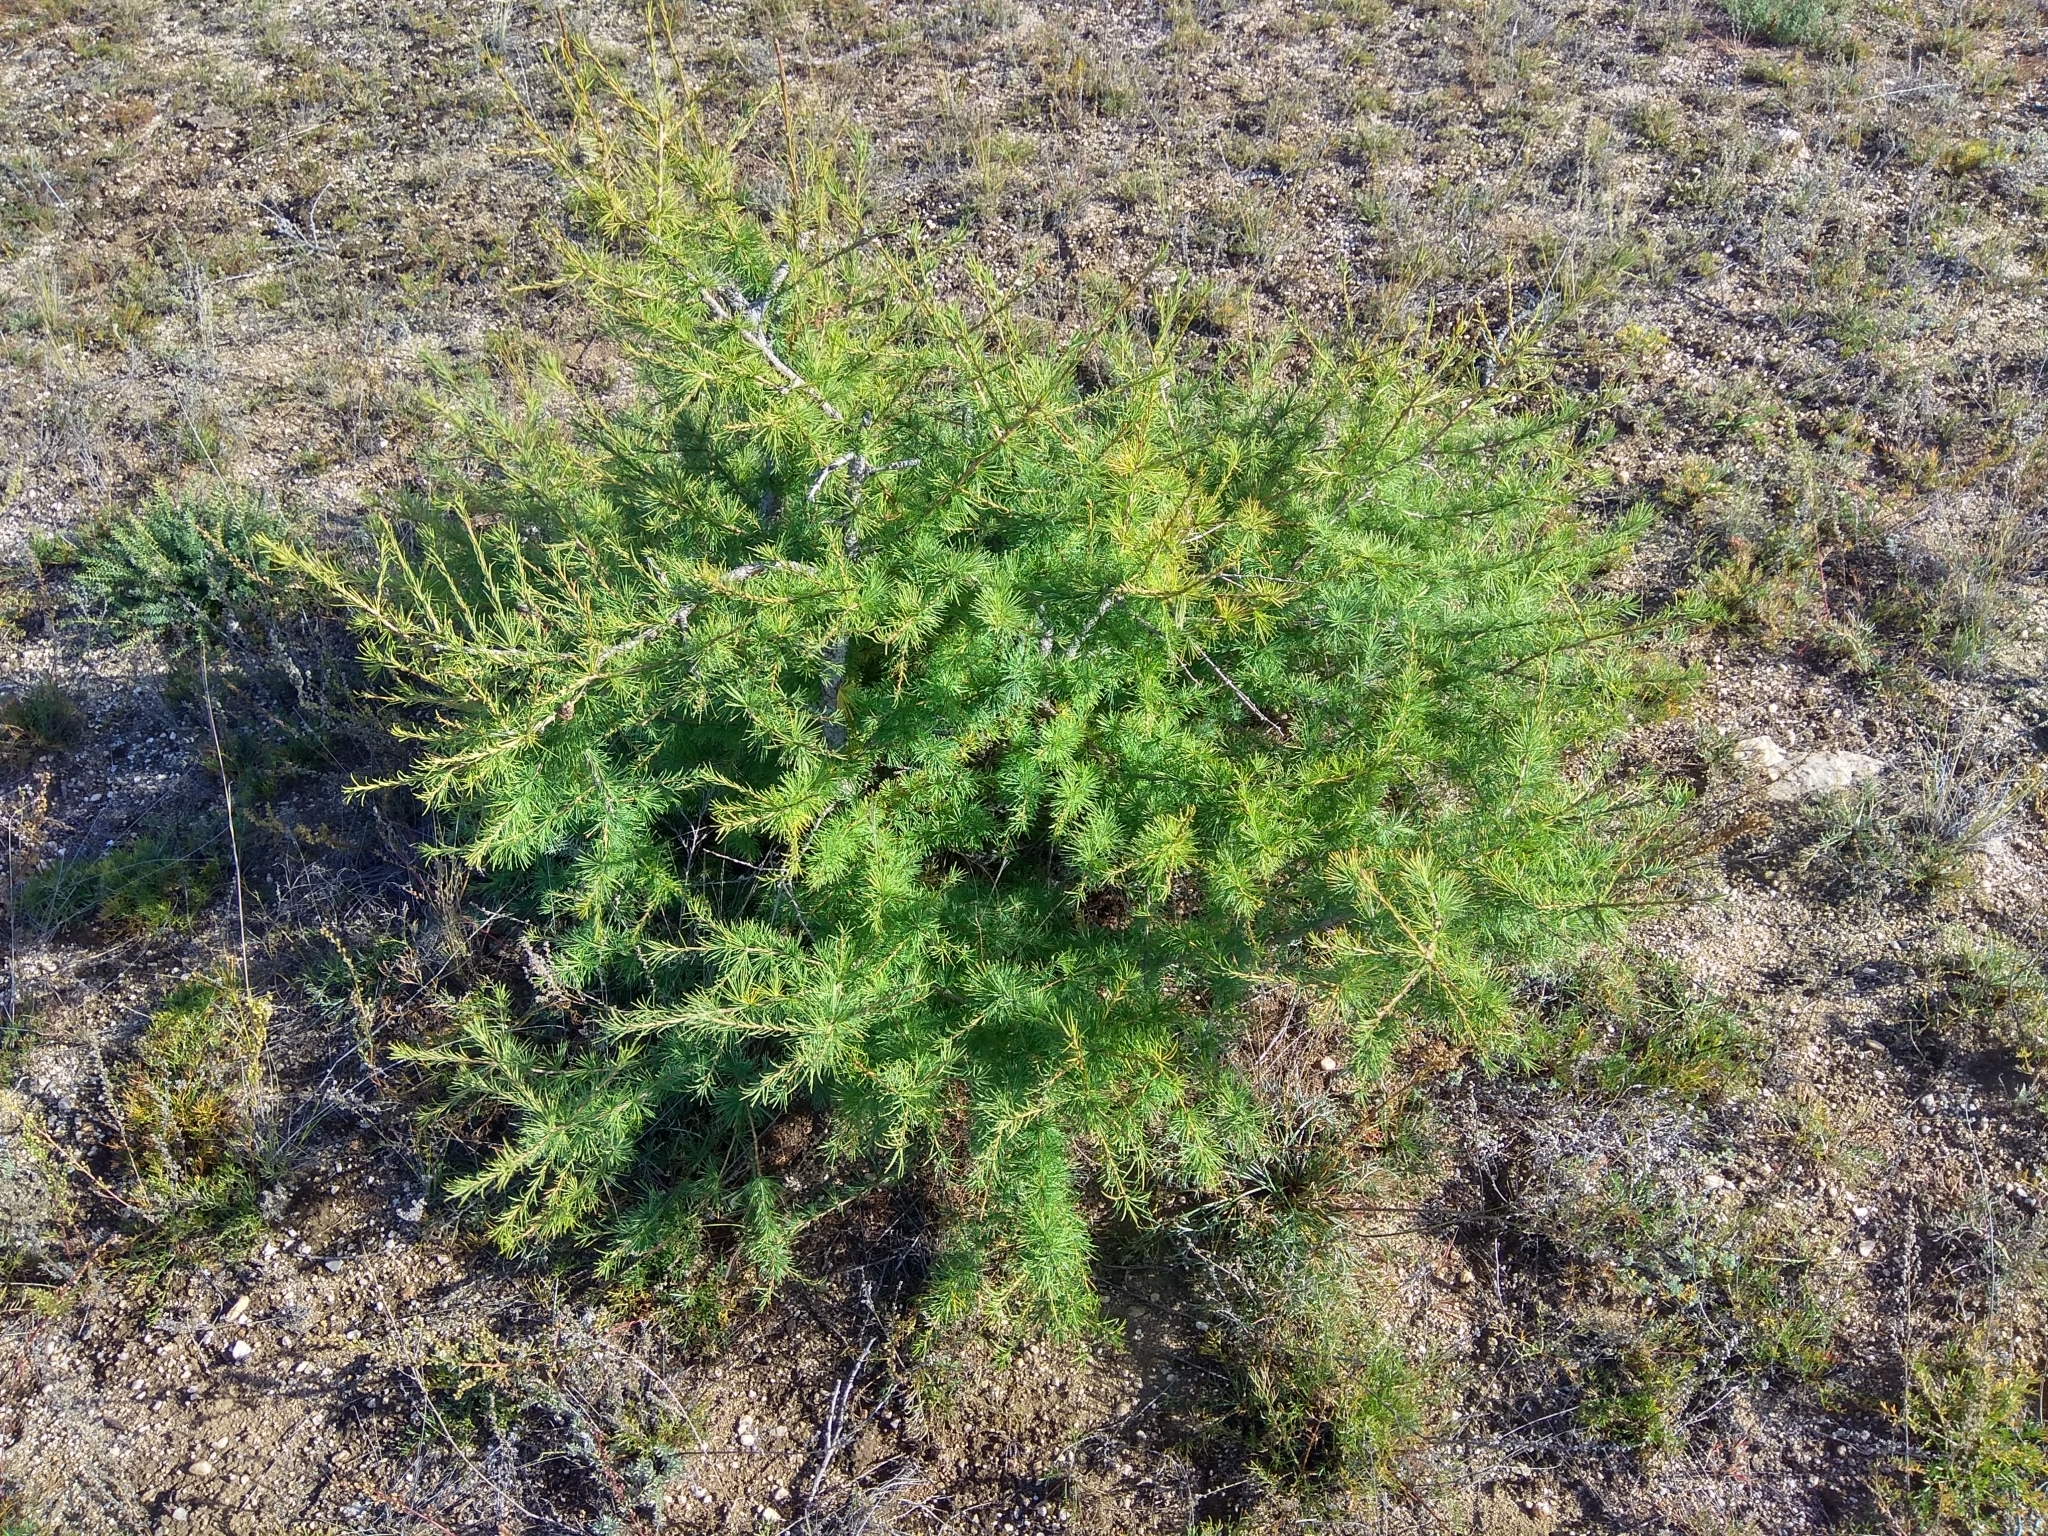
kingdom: Plantae
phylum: Tracheophyta
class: Pinopsida
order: Pinales
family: Pinaceae
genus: Larix
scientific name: Larix sibirica
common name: Siberian larch
